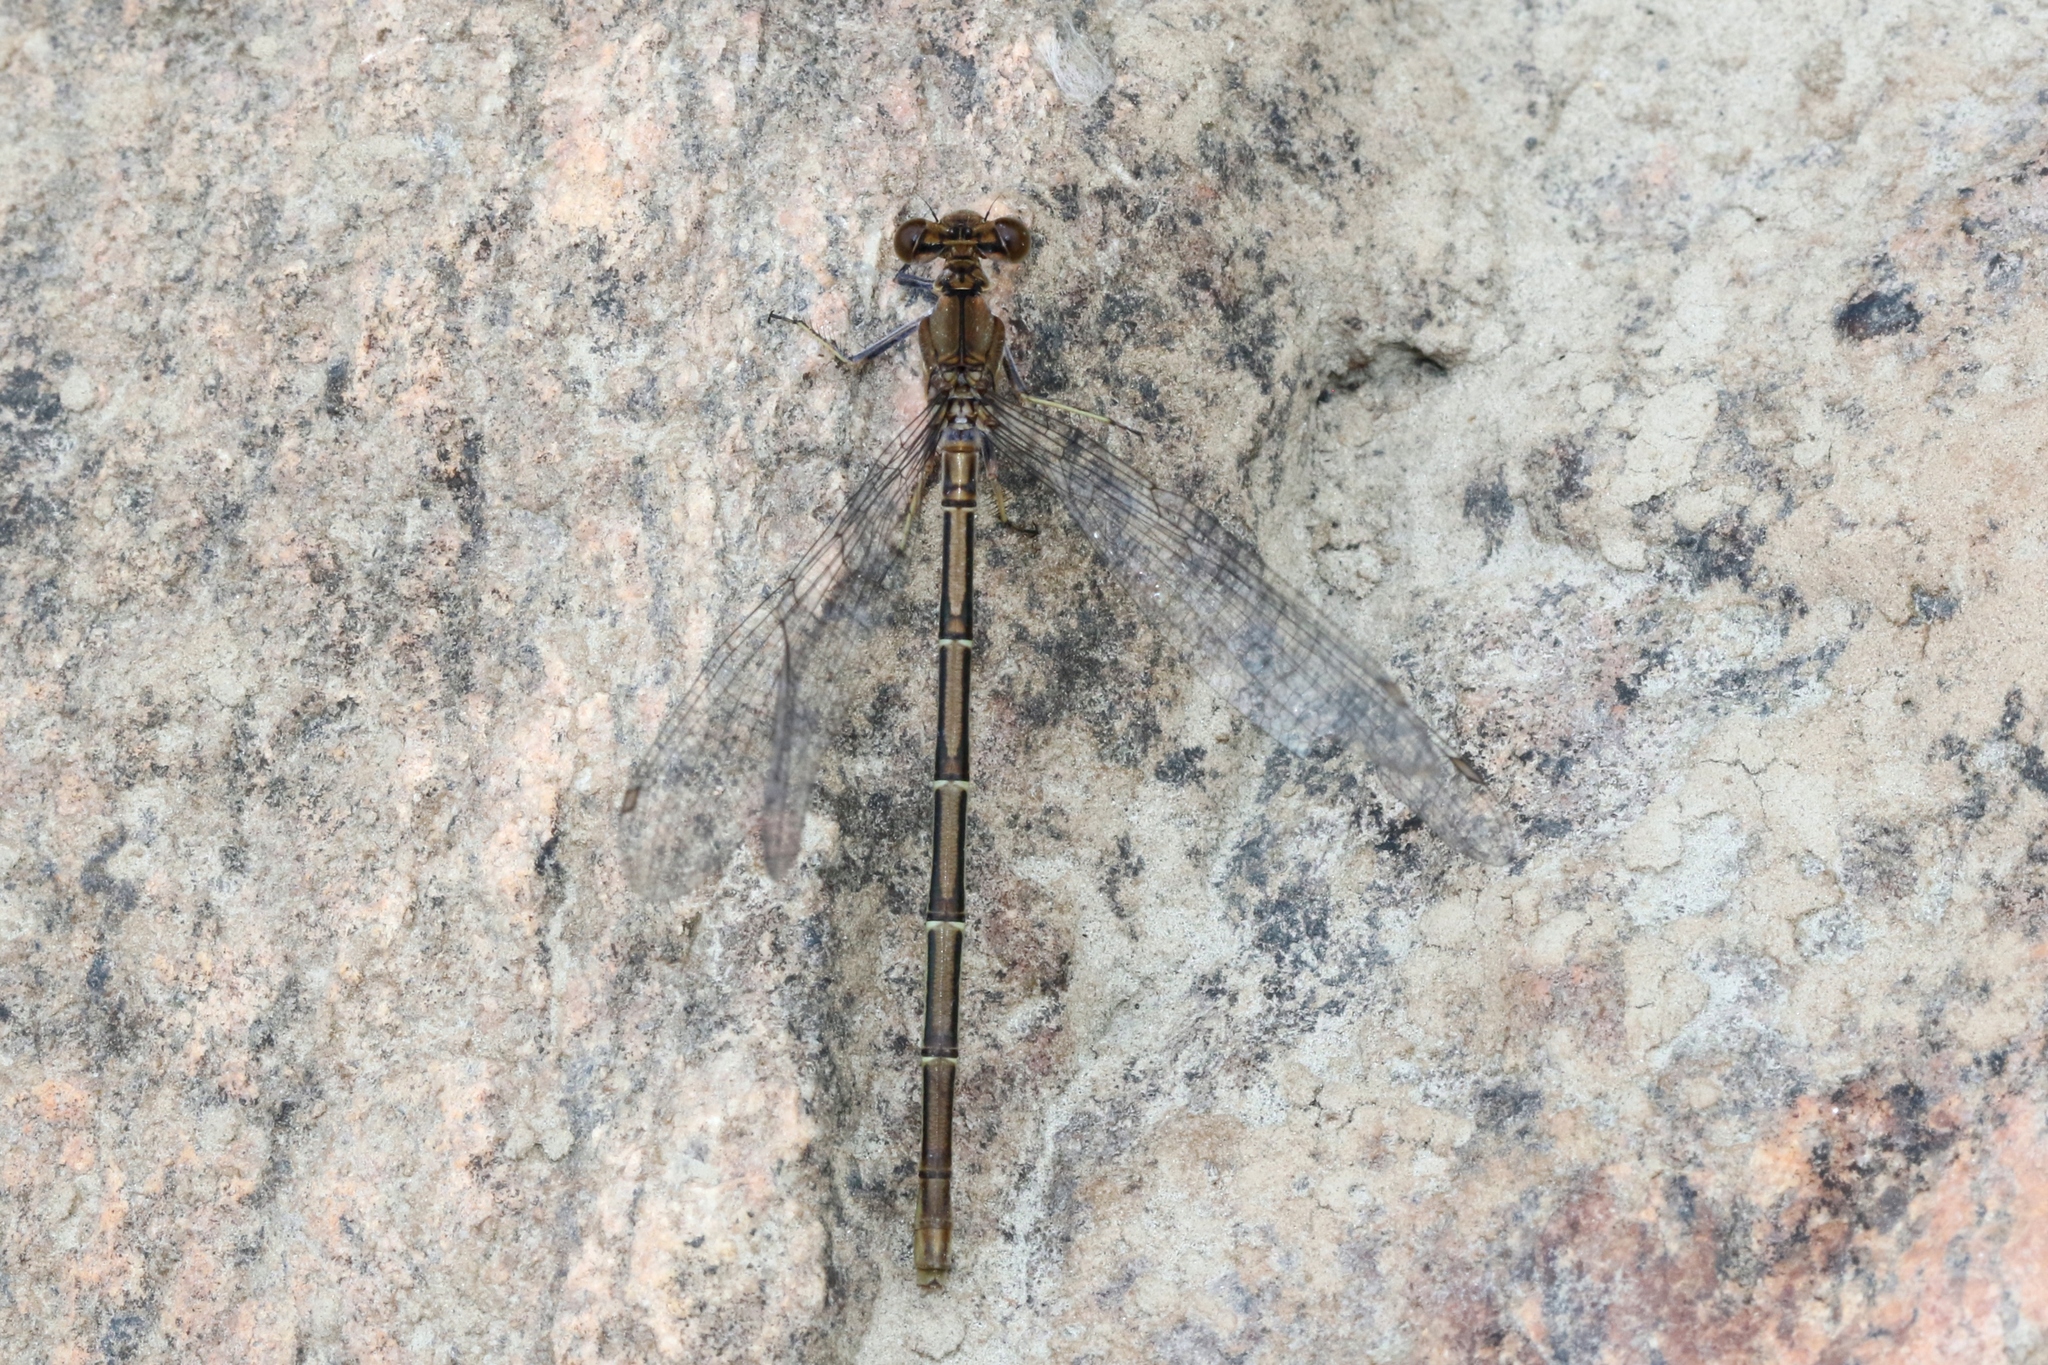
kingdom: Animalia
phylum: Arthropoda
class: Insecta
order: Odonata
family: Coenagrionidae
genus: Argia
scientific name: Argia moesta
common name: Powdered dancer
